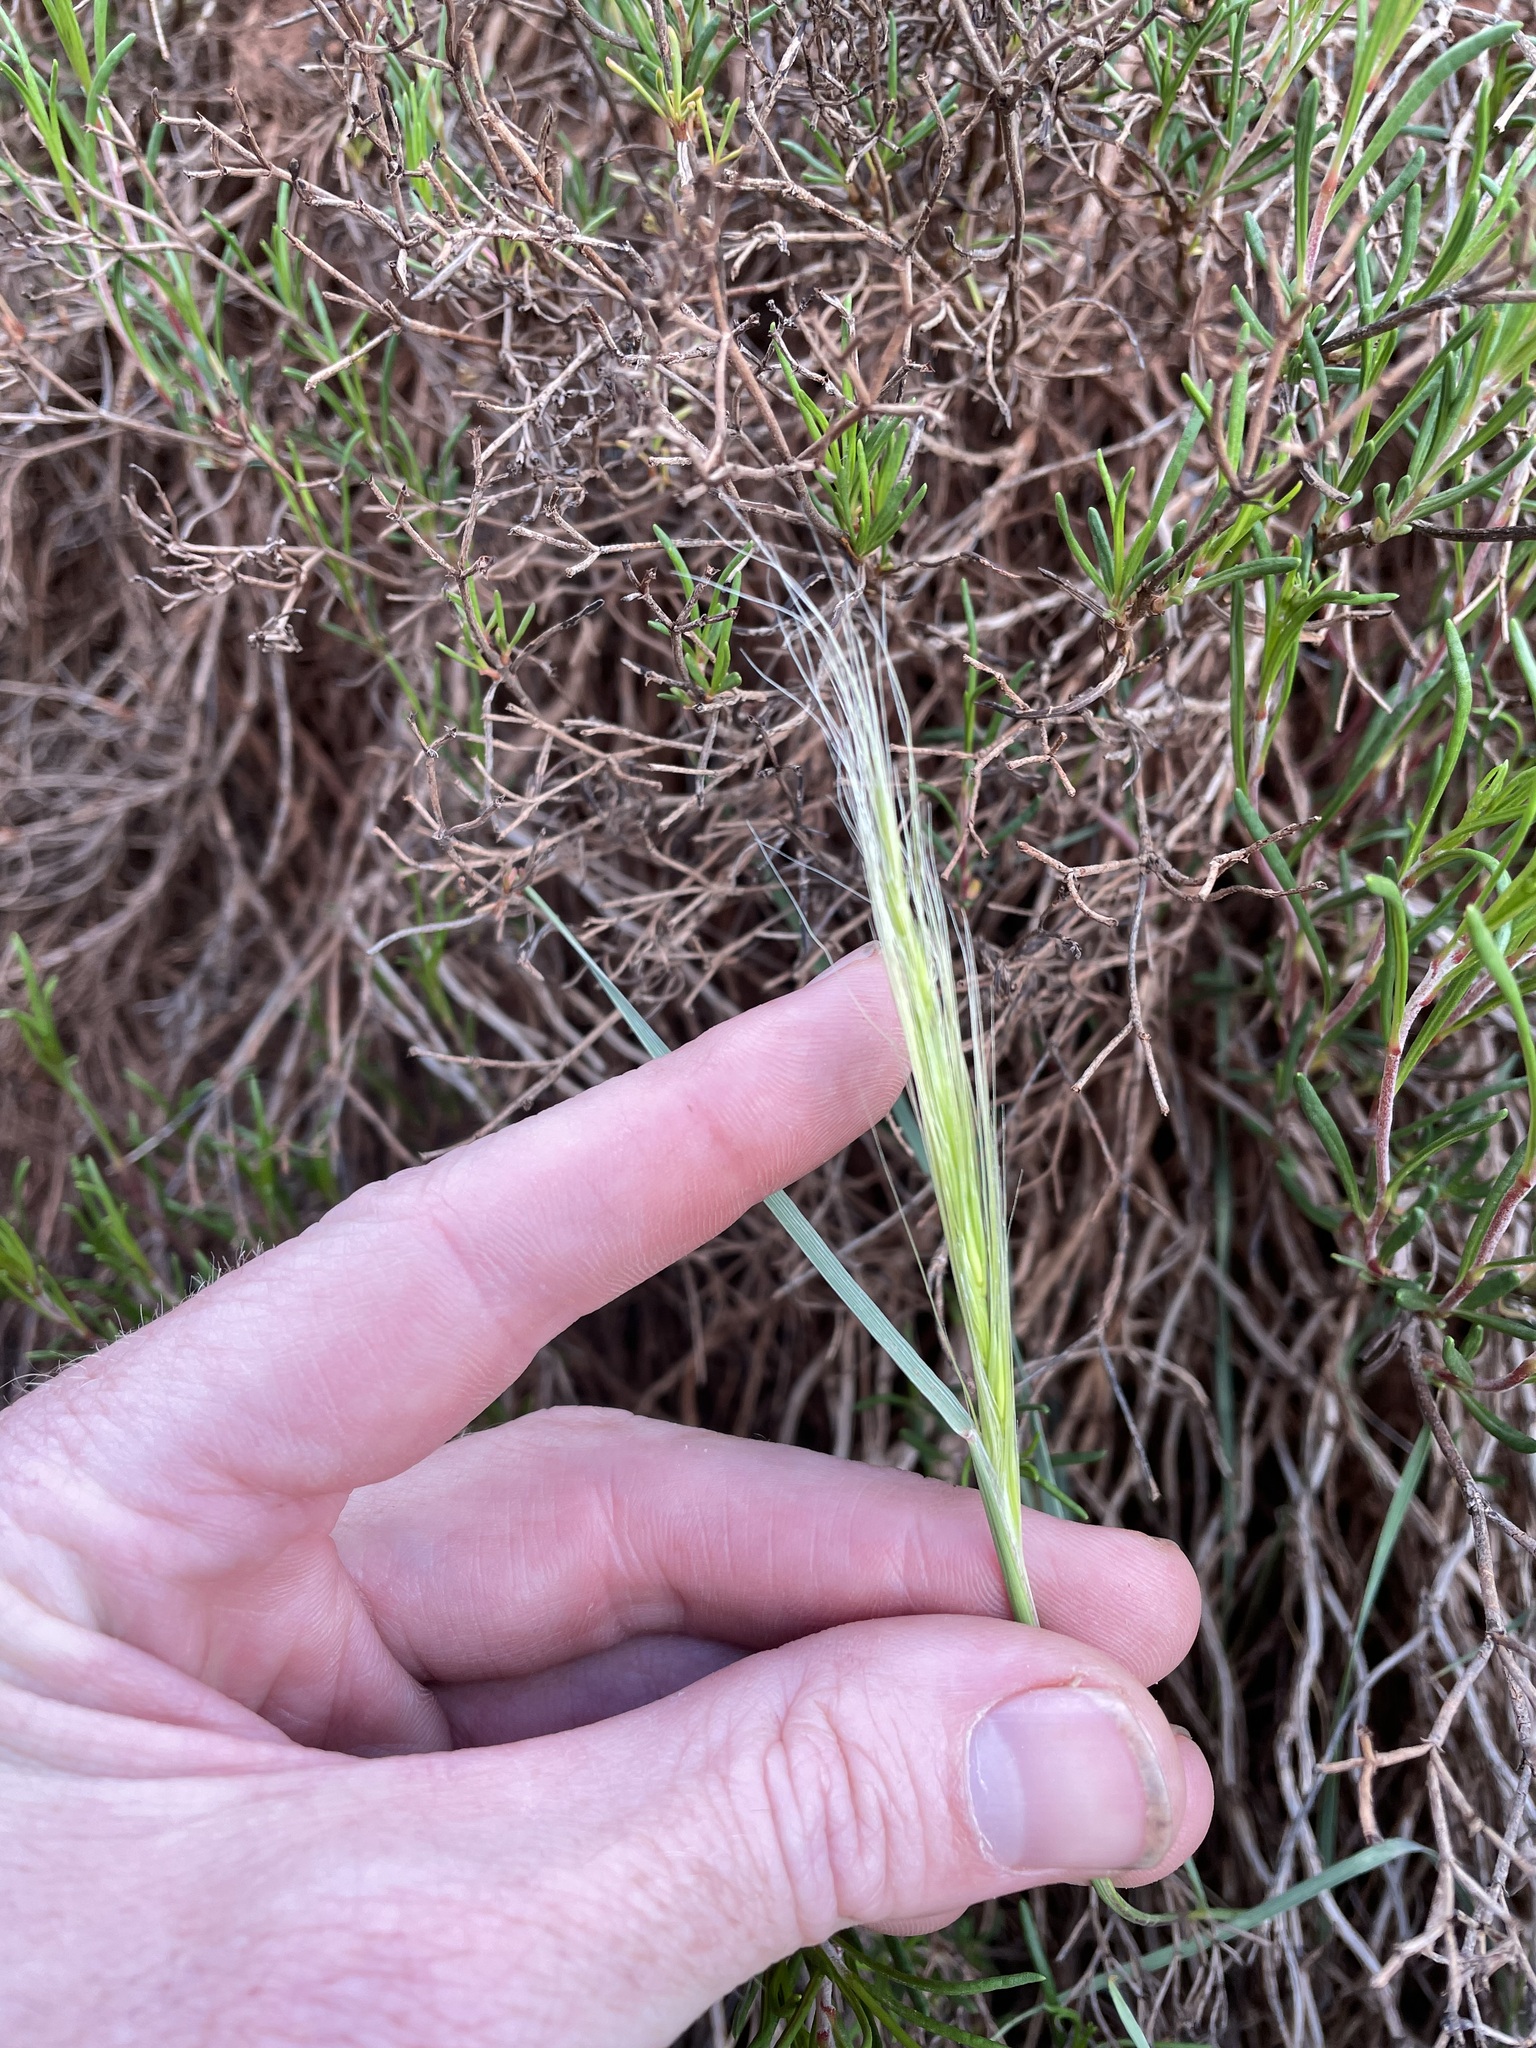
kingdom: Plantae
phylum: Tracheophyta
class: Liliopsida
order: Poales
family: Poaceae
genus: Elymus
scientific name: Elymus longifolius
